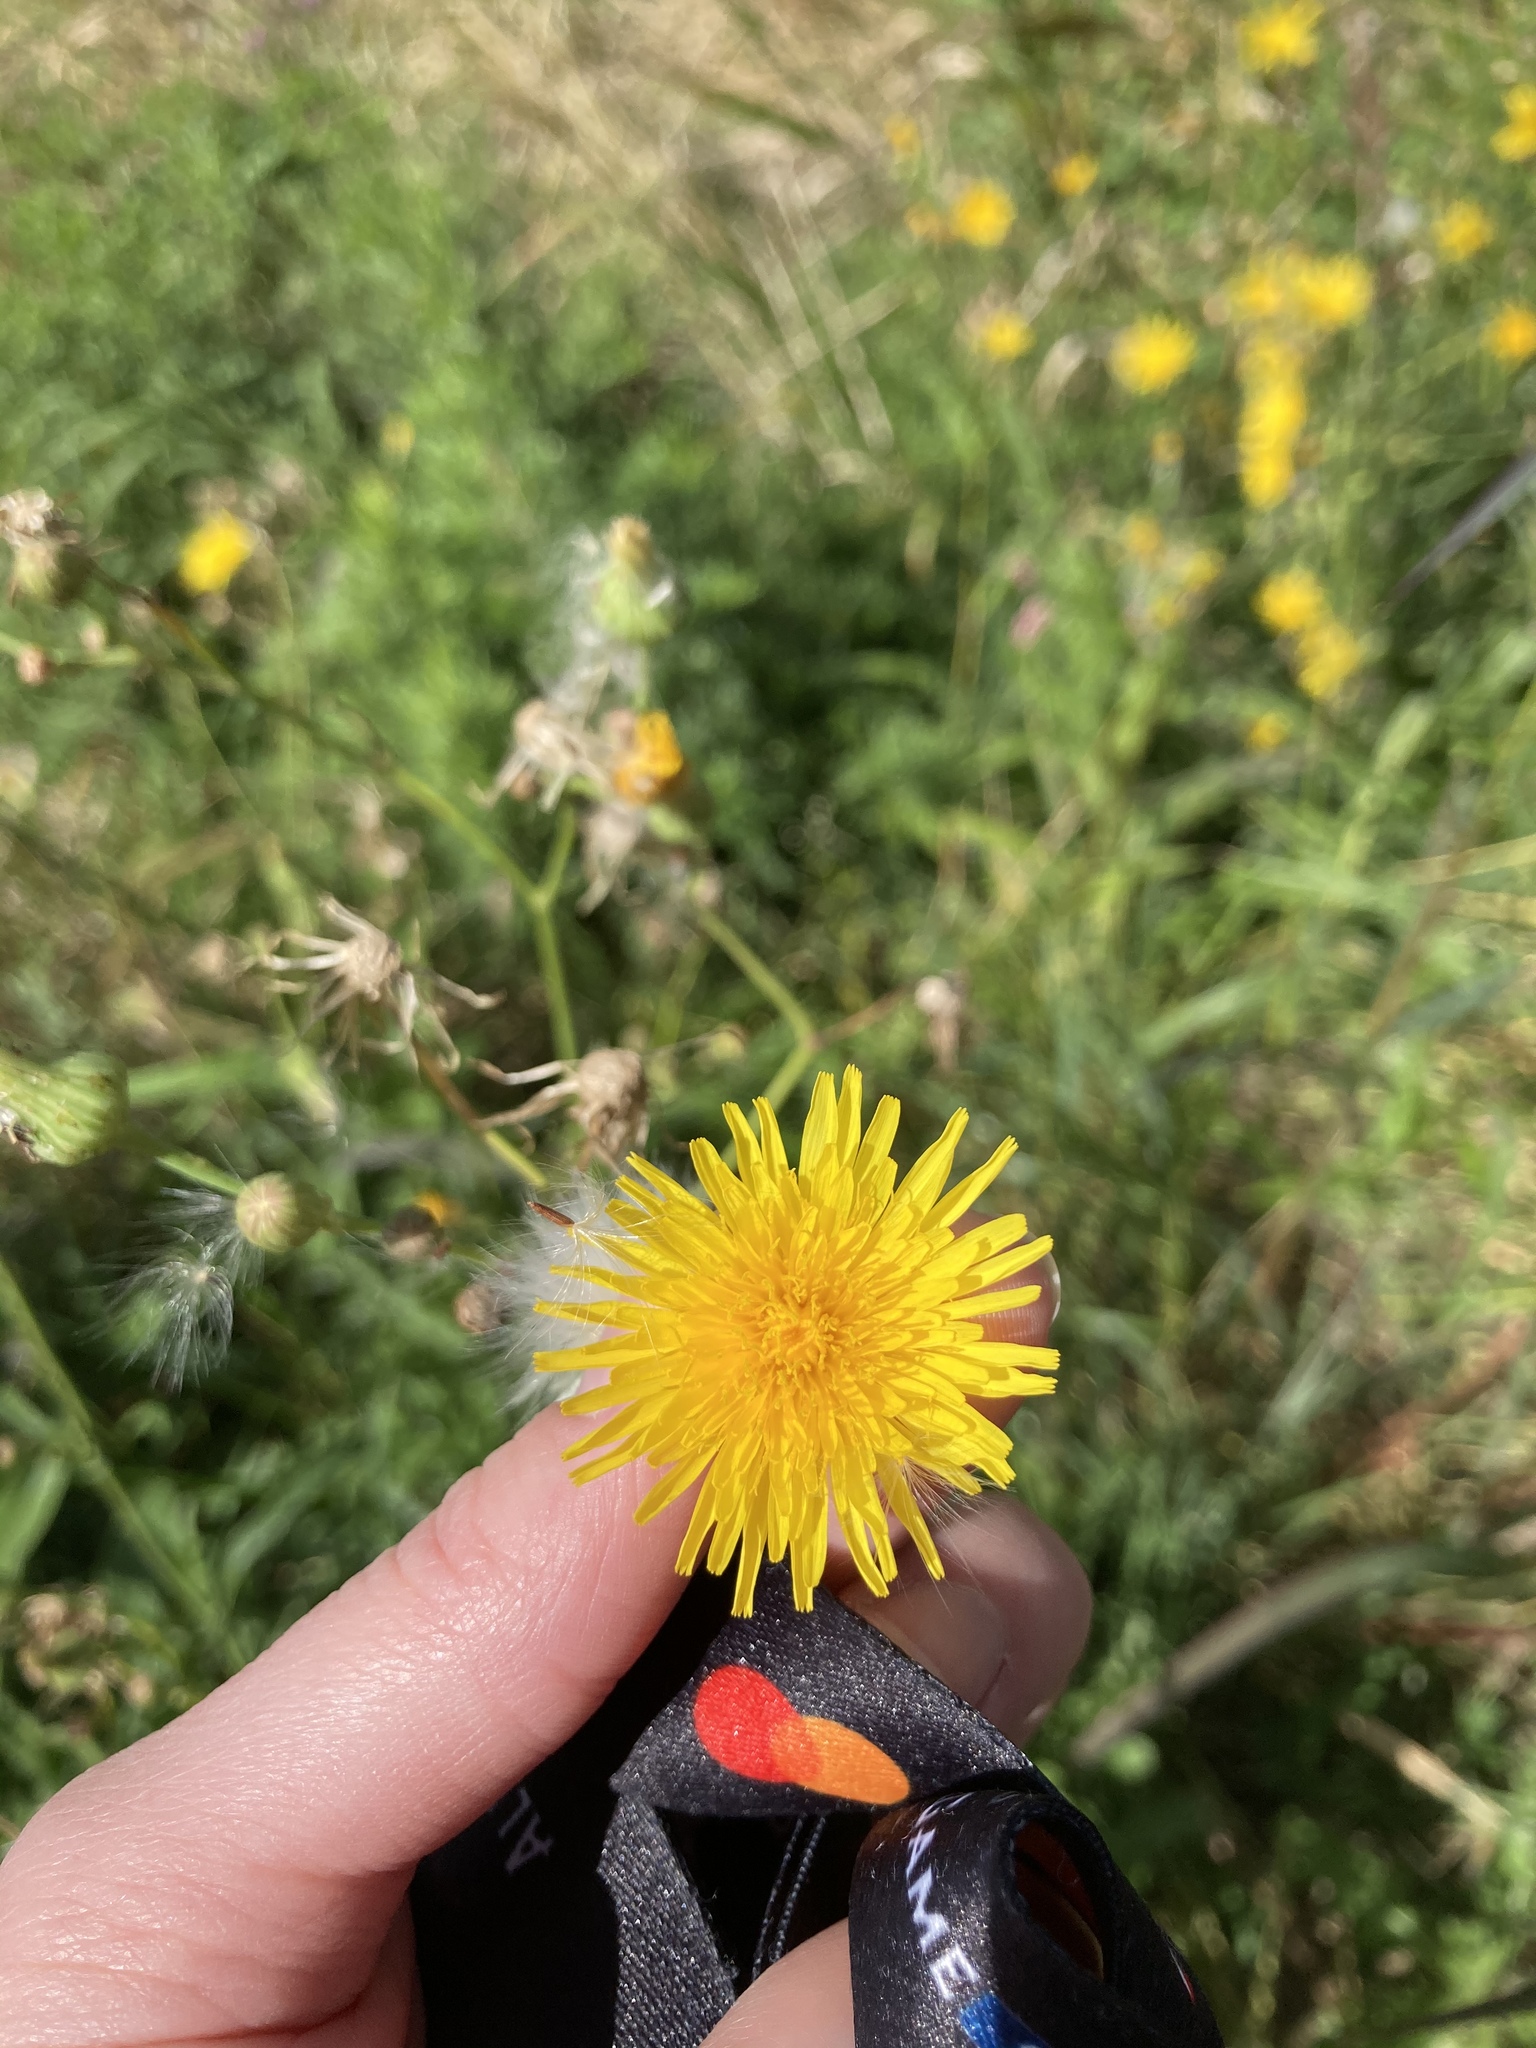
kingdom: Plantae
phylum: Tracheophyta
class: Magnoliopsida
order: Asterales
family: Asteraceae
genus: Sonchus
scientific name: Sonchus arvensis
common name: Perennial sow-thistle
